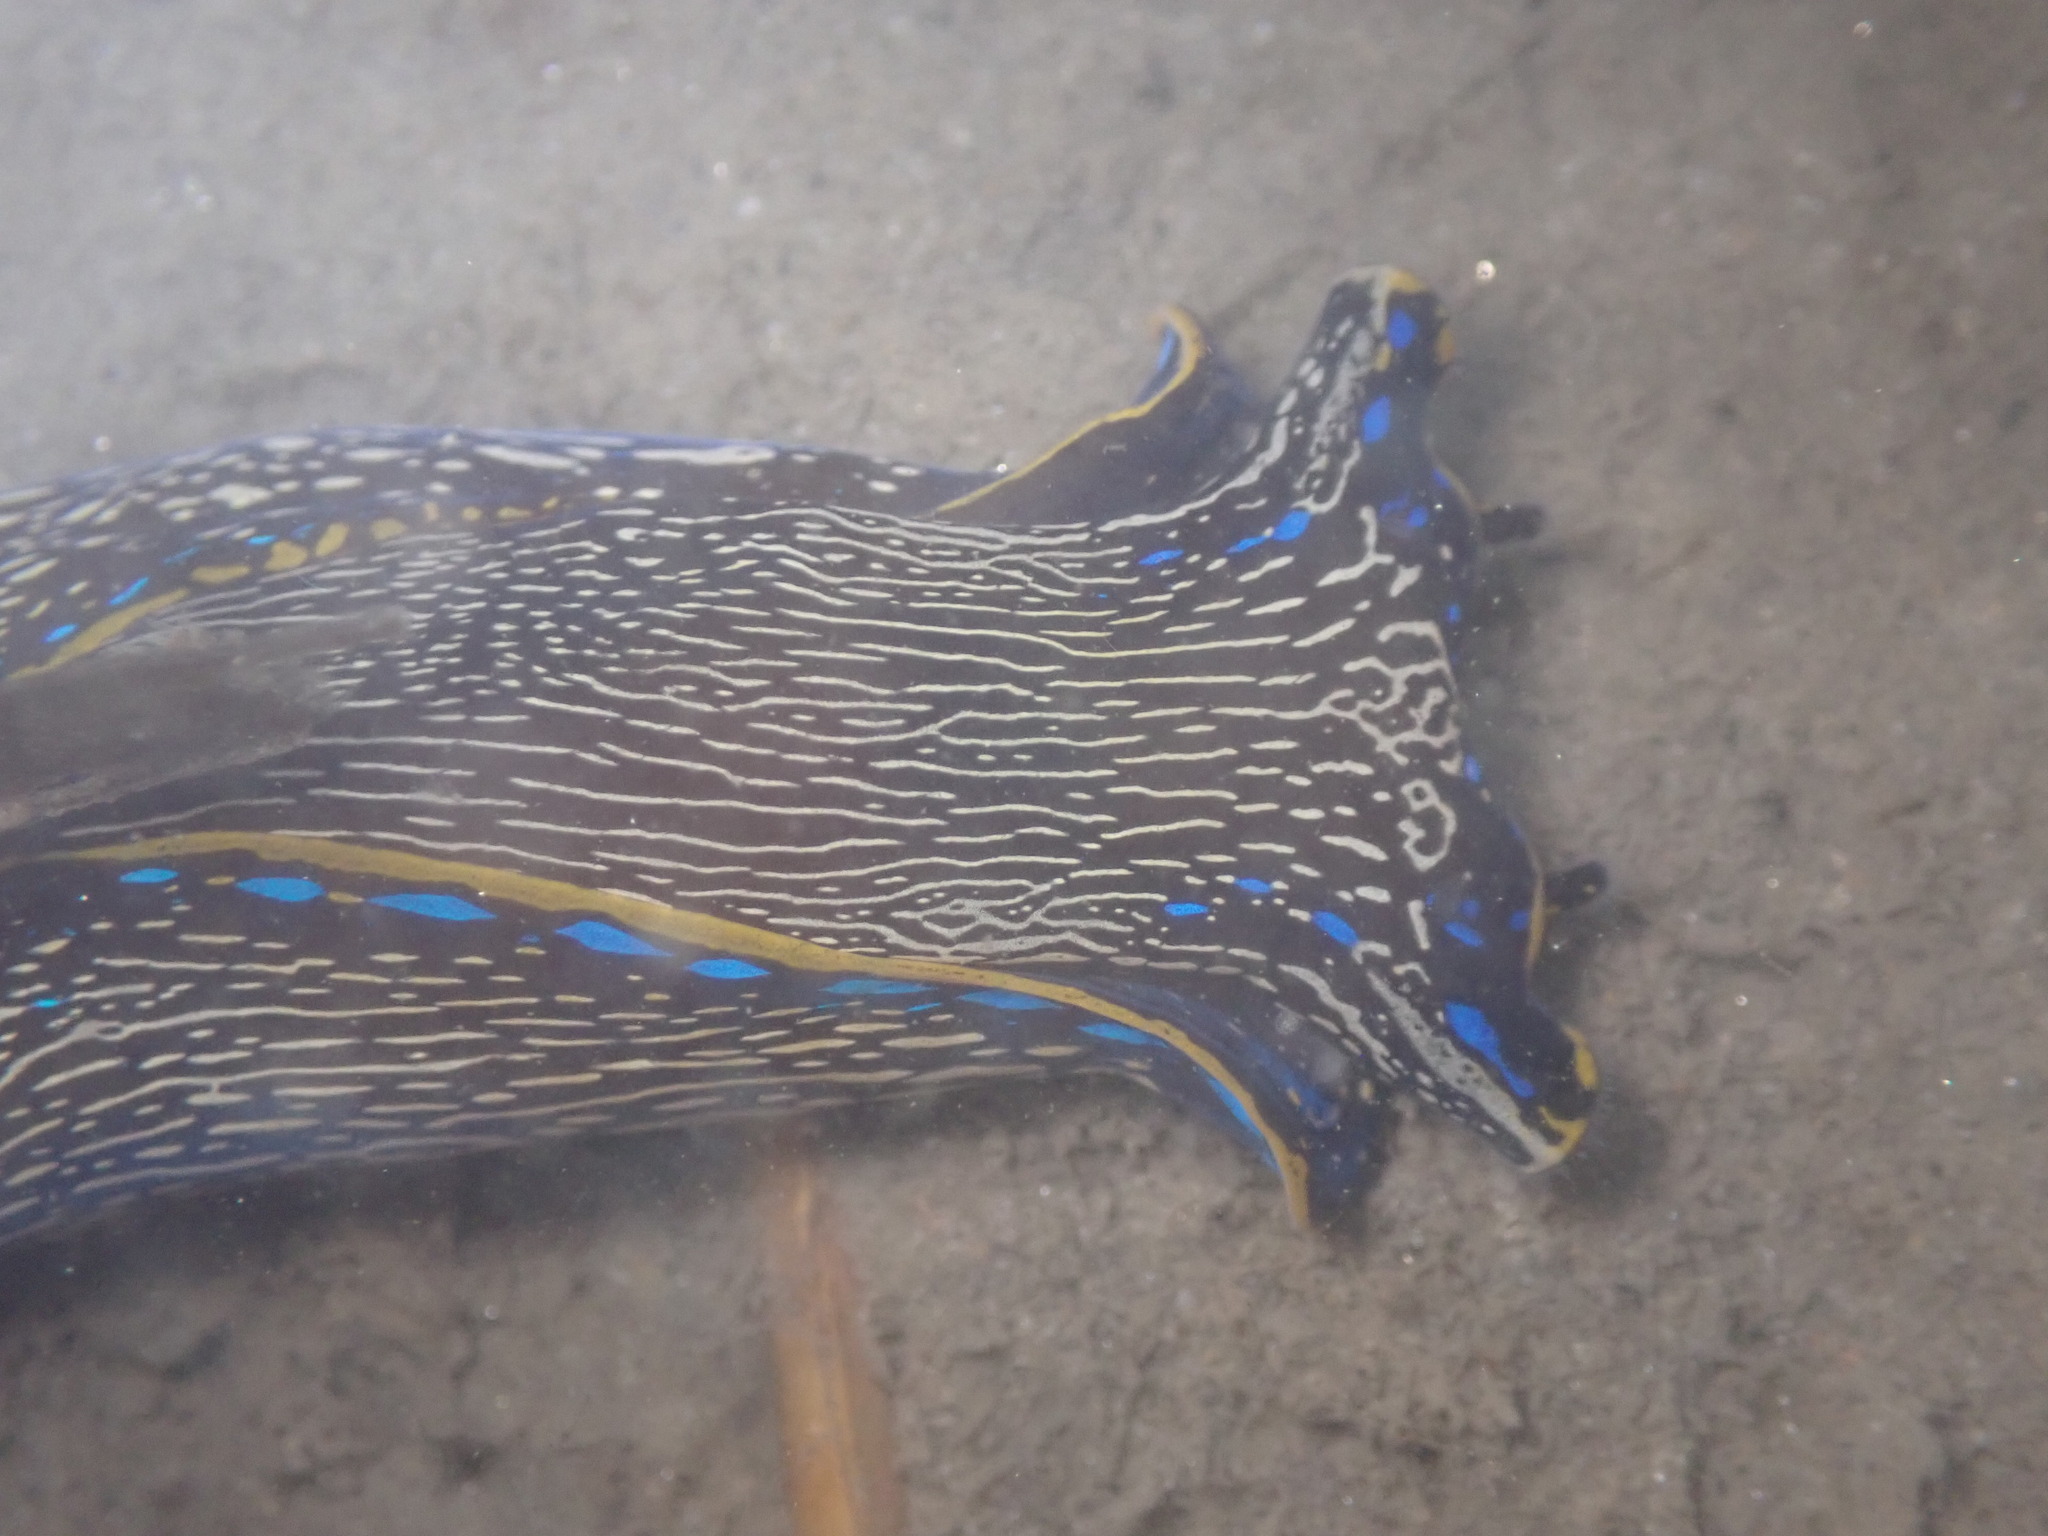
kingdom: Animalia
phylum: Mollusca
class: Gastropoda
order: Cephalaspidea
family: Aglajidae
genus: Navanax
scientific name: Navanax inermis
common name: California aglaja
